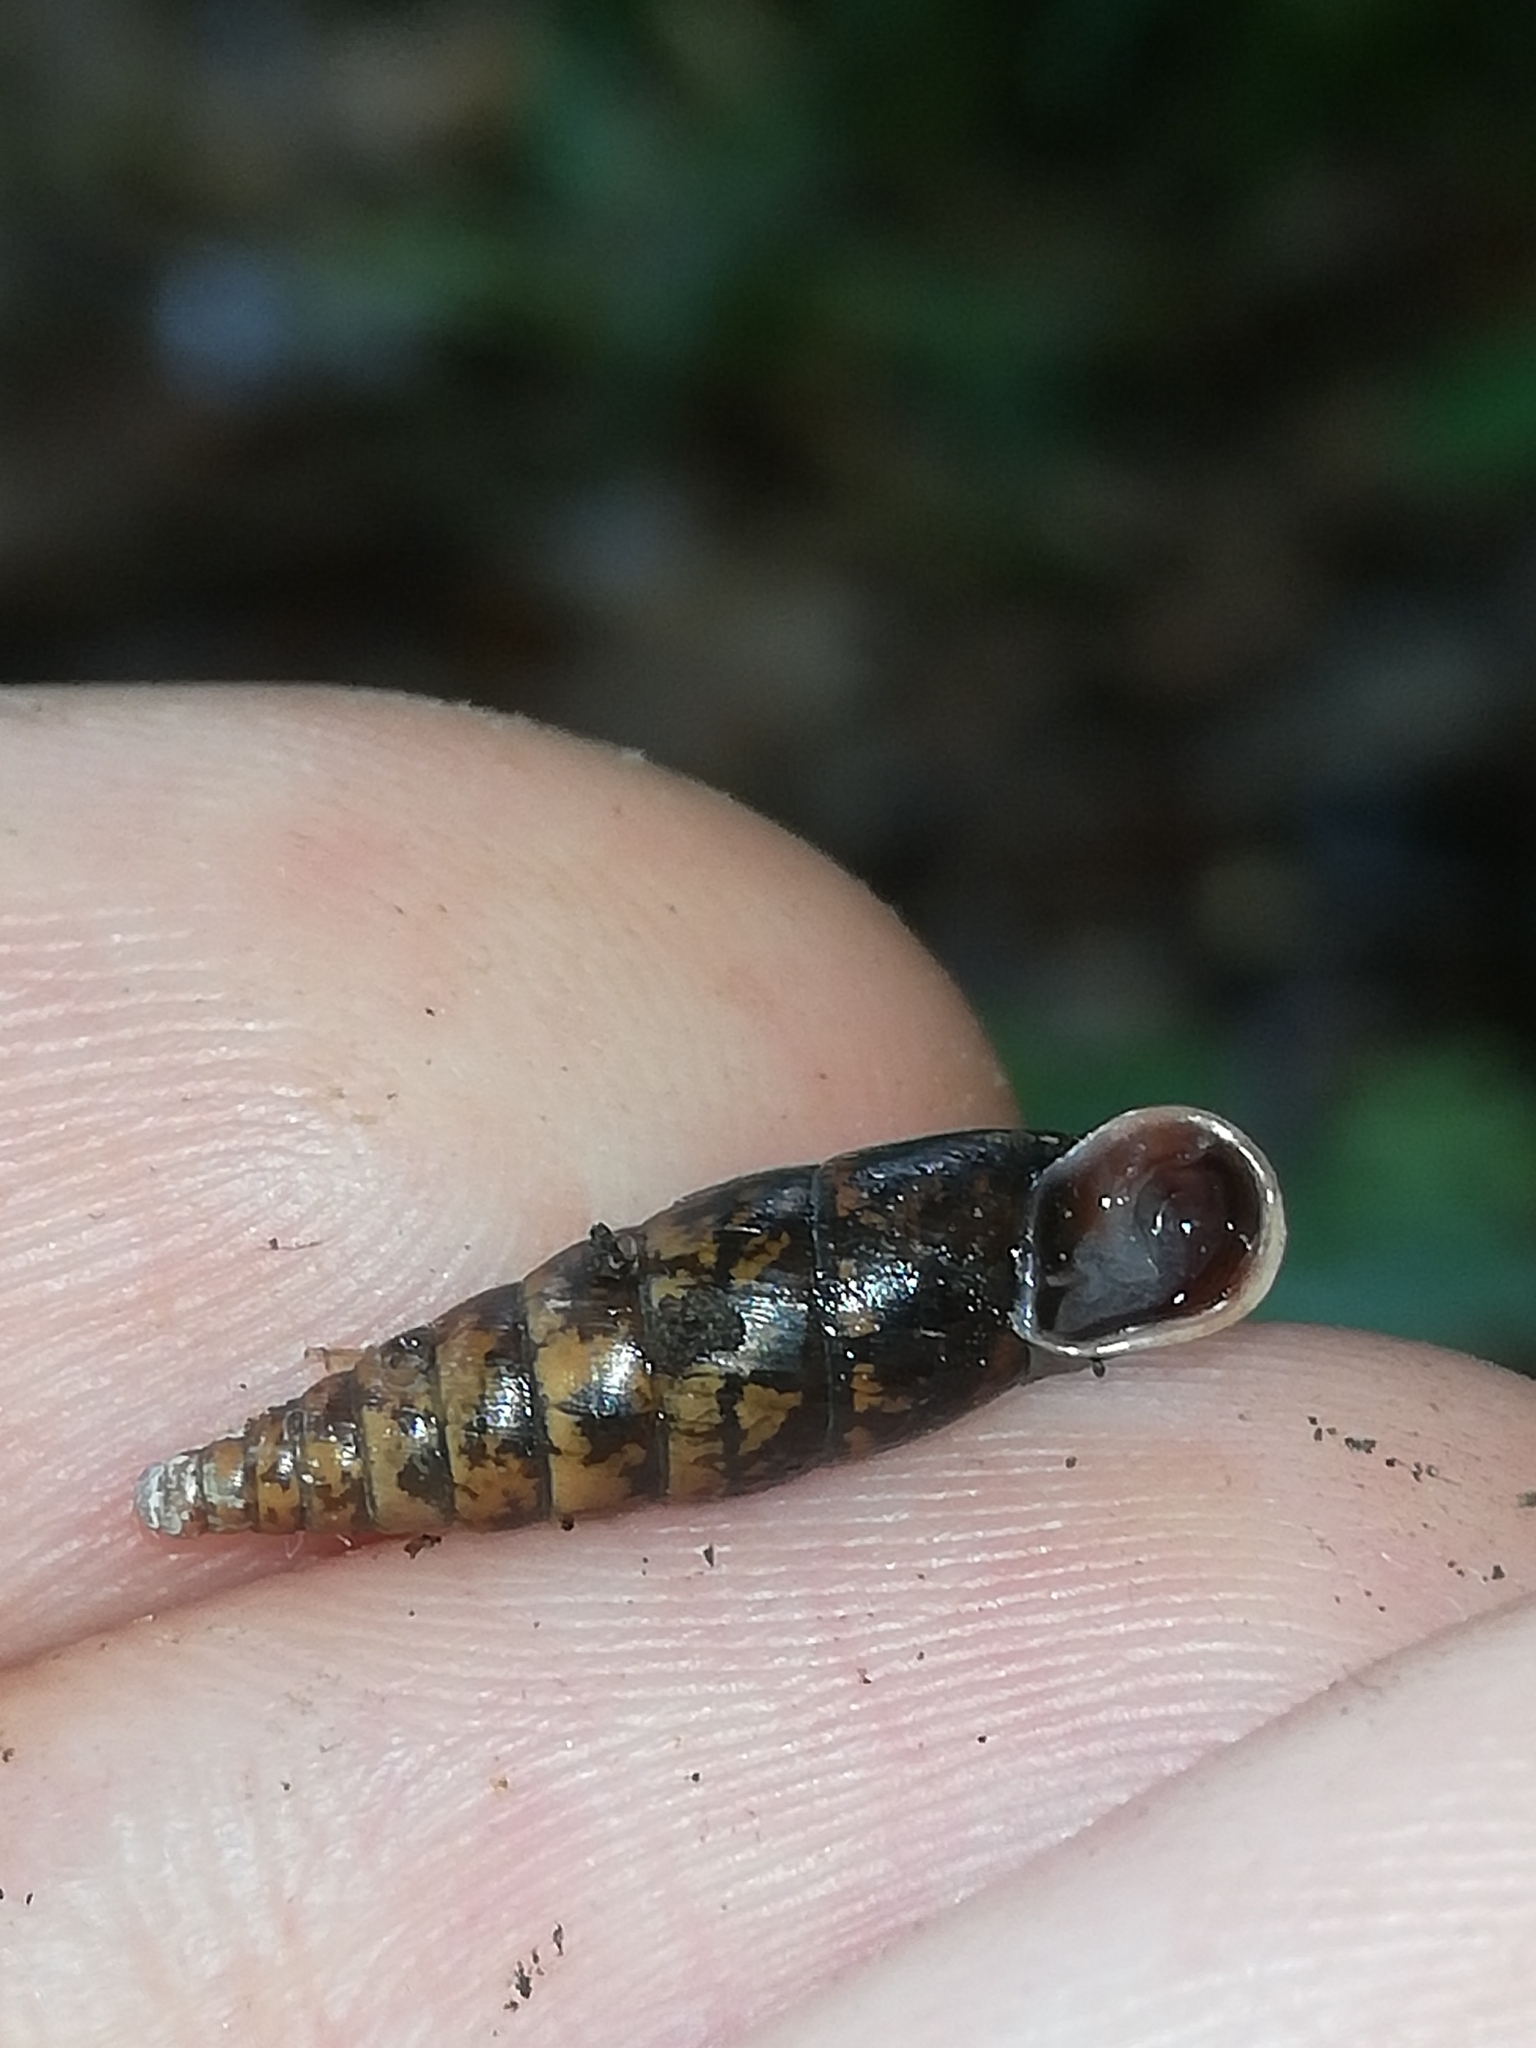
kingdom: Animalia
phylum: Mollusca
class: Gastropoda
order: Stylommatophora
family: Clausiliidae
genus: Cochlodina
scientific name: Cochlodina laminata
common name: Plaited door snail
